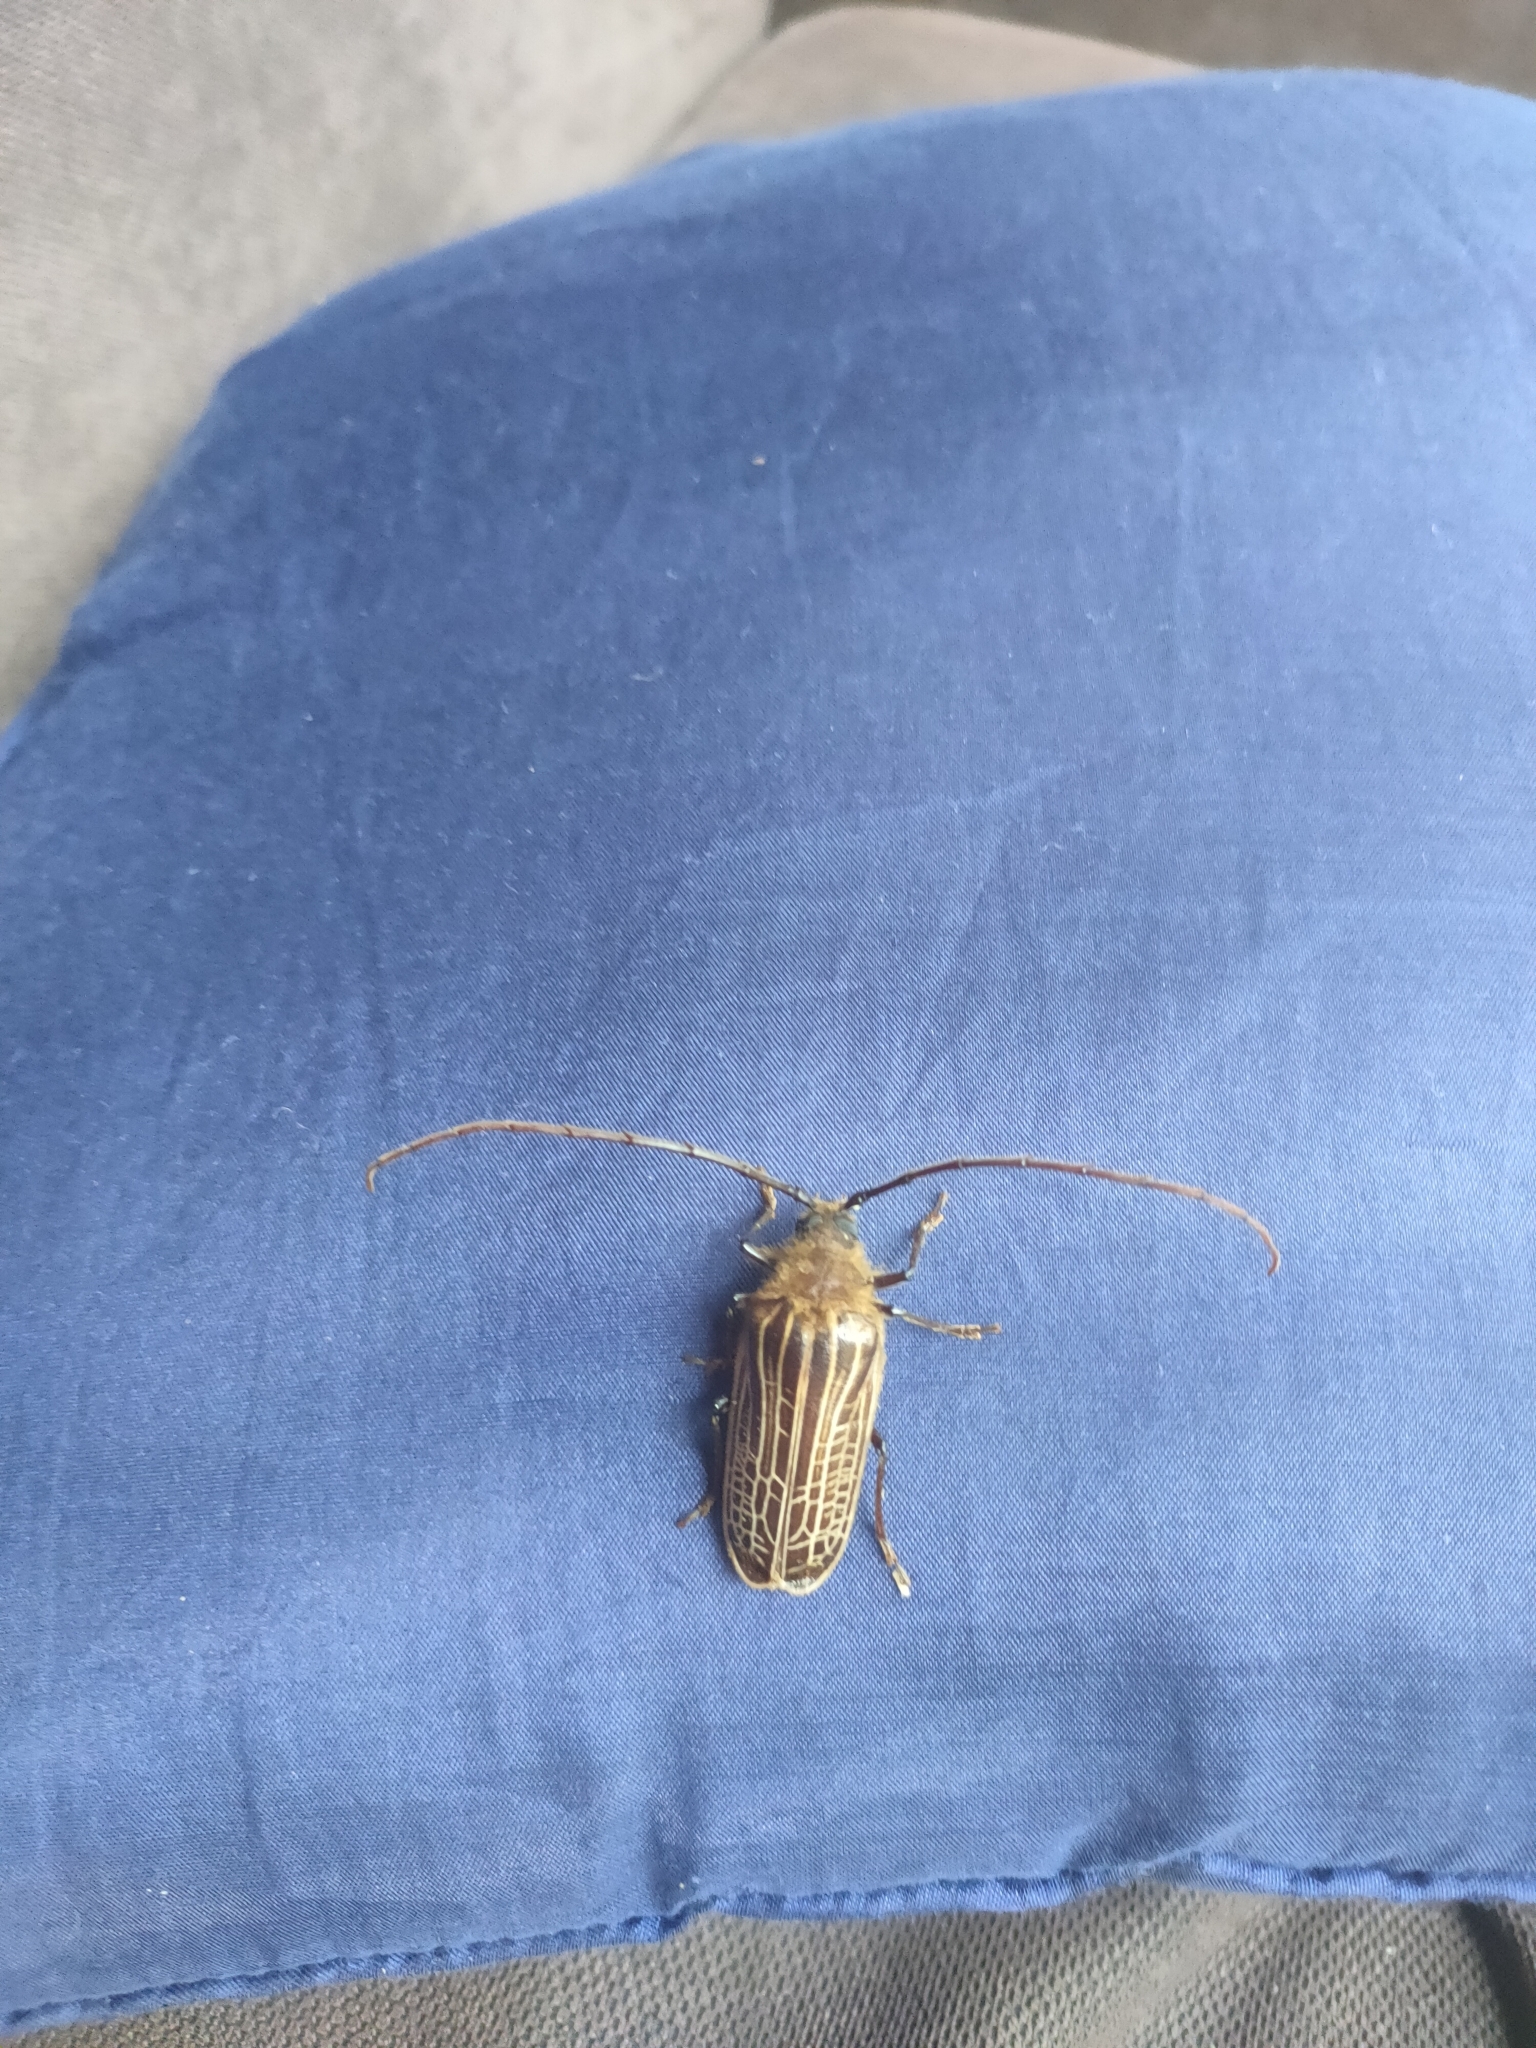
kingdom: Animalia
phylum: Arthropoda
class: Insecta
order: Coleoptera
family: Cerambycidae
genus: Prionoplus
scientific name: Prionoplus reticularis
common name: Huhu beetle
